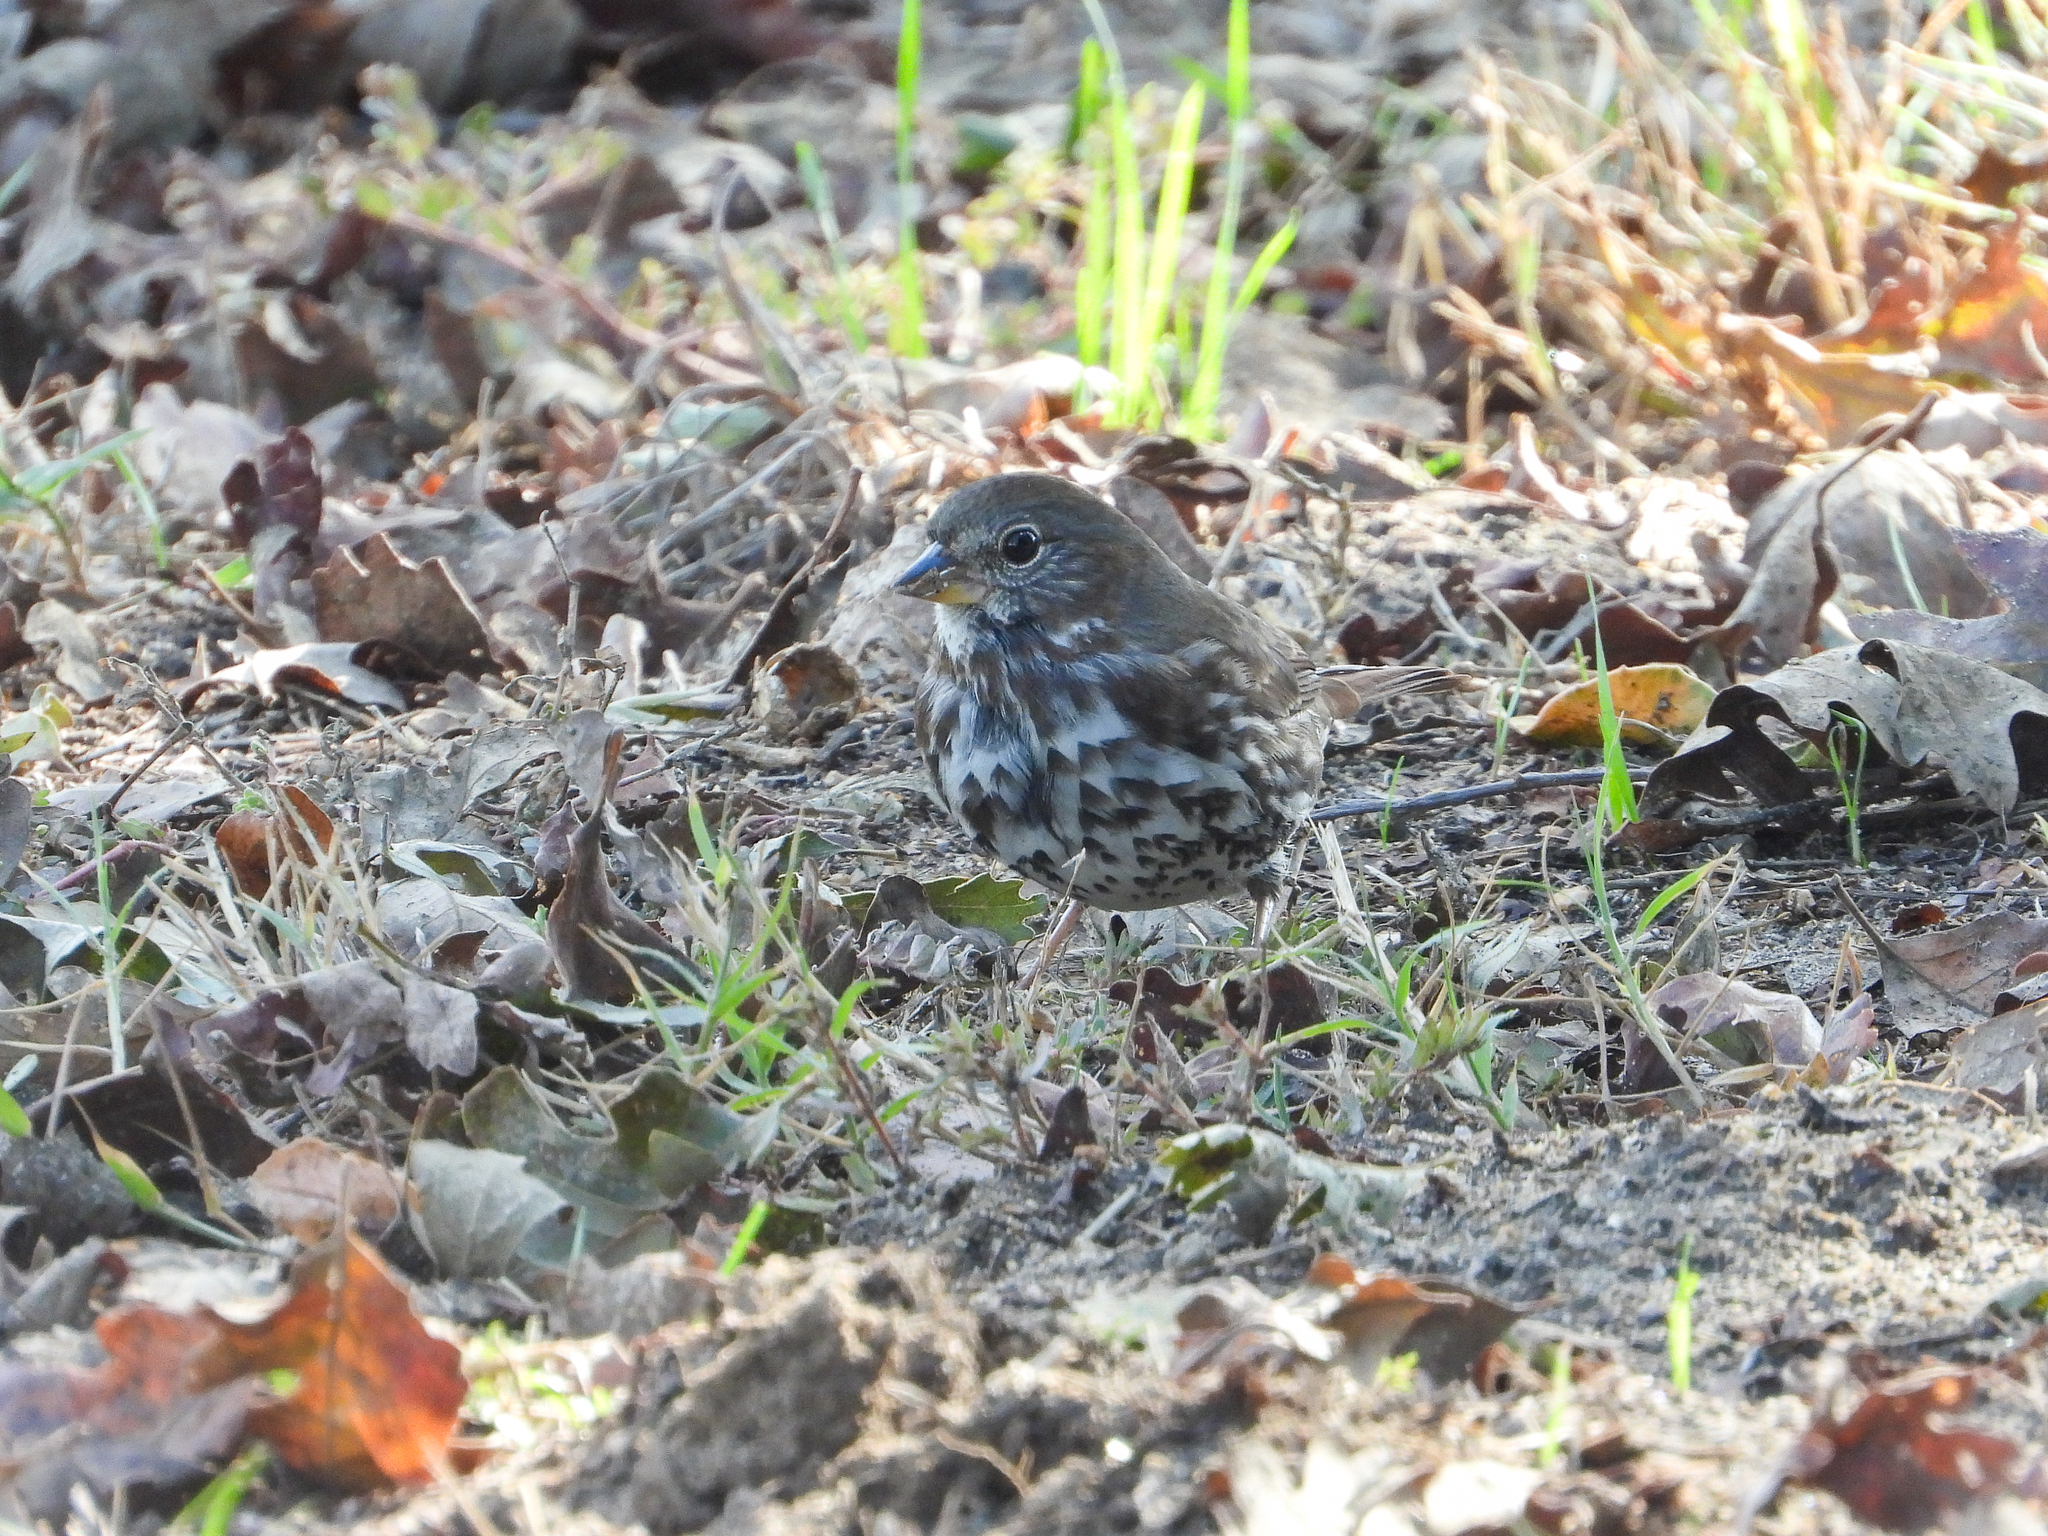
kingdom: Animalia
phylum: Chordata
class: Aves
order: Passeriformes
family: Passerellidae
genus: Passerella
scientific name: Passerella iliaca
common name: Fox sparrow
